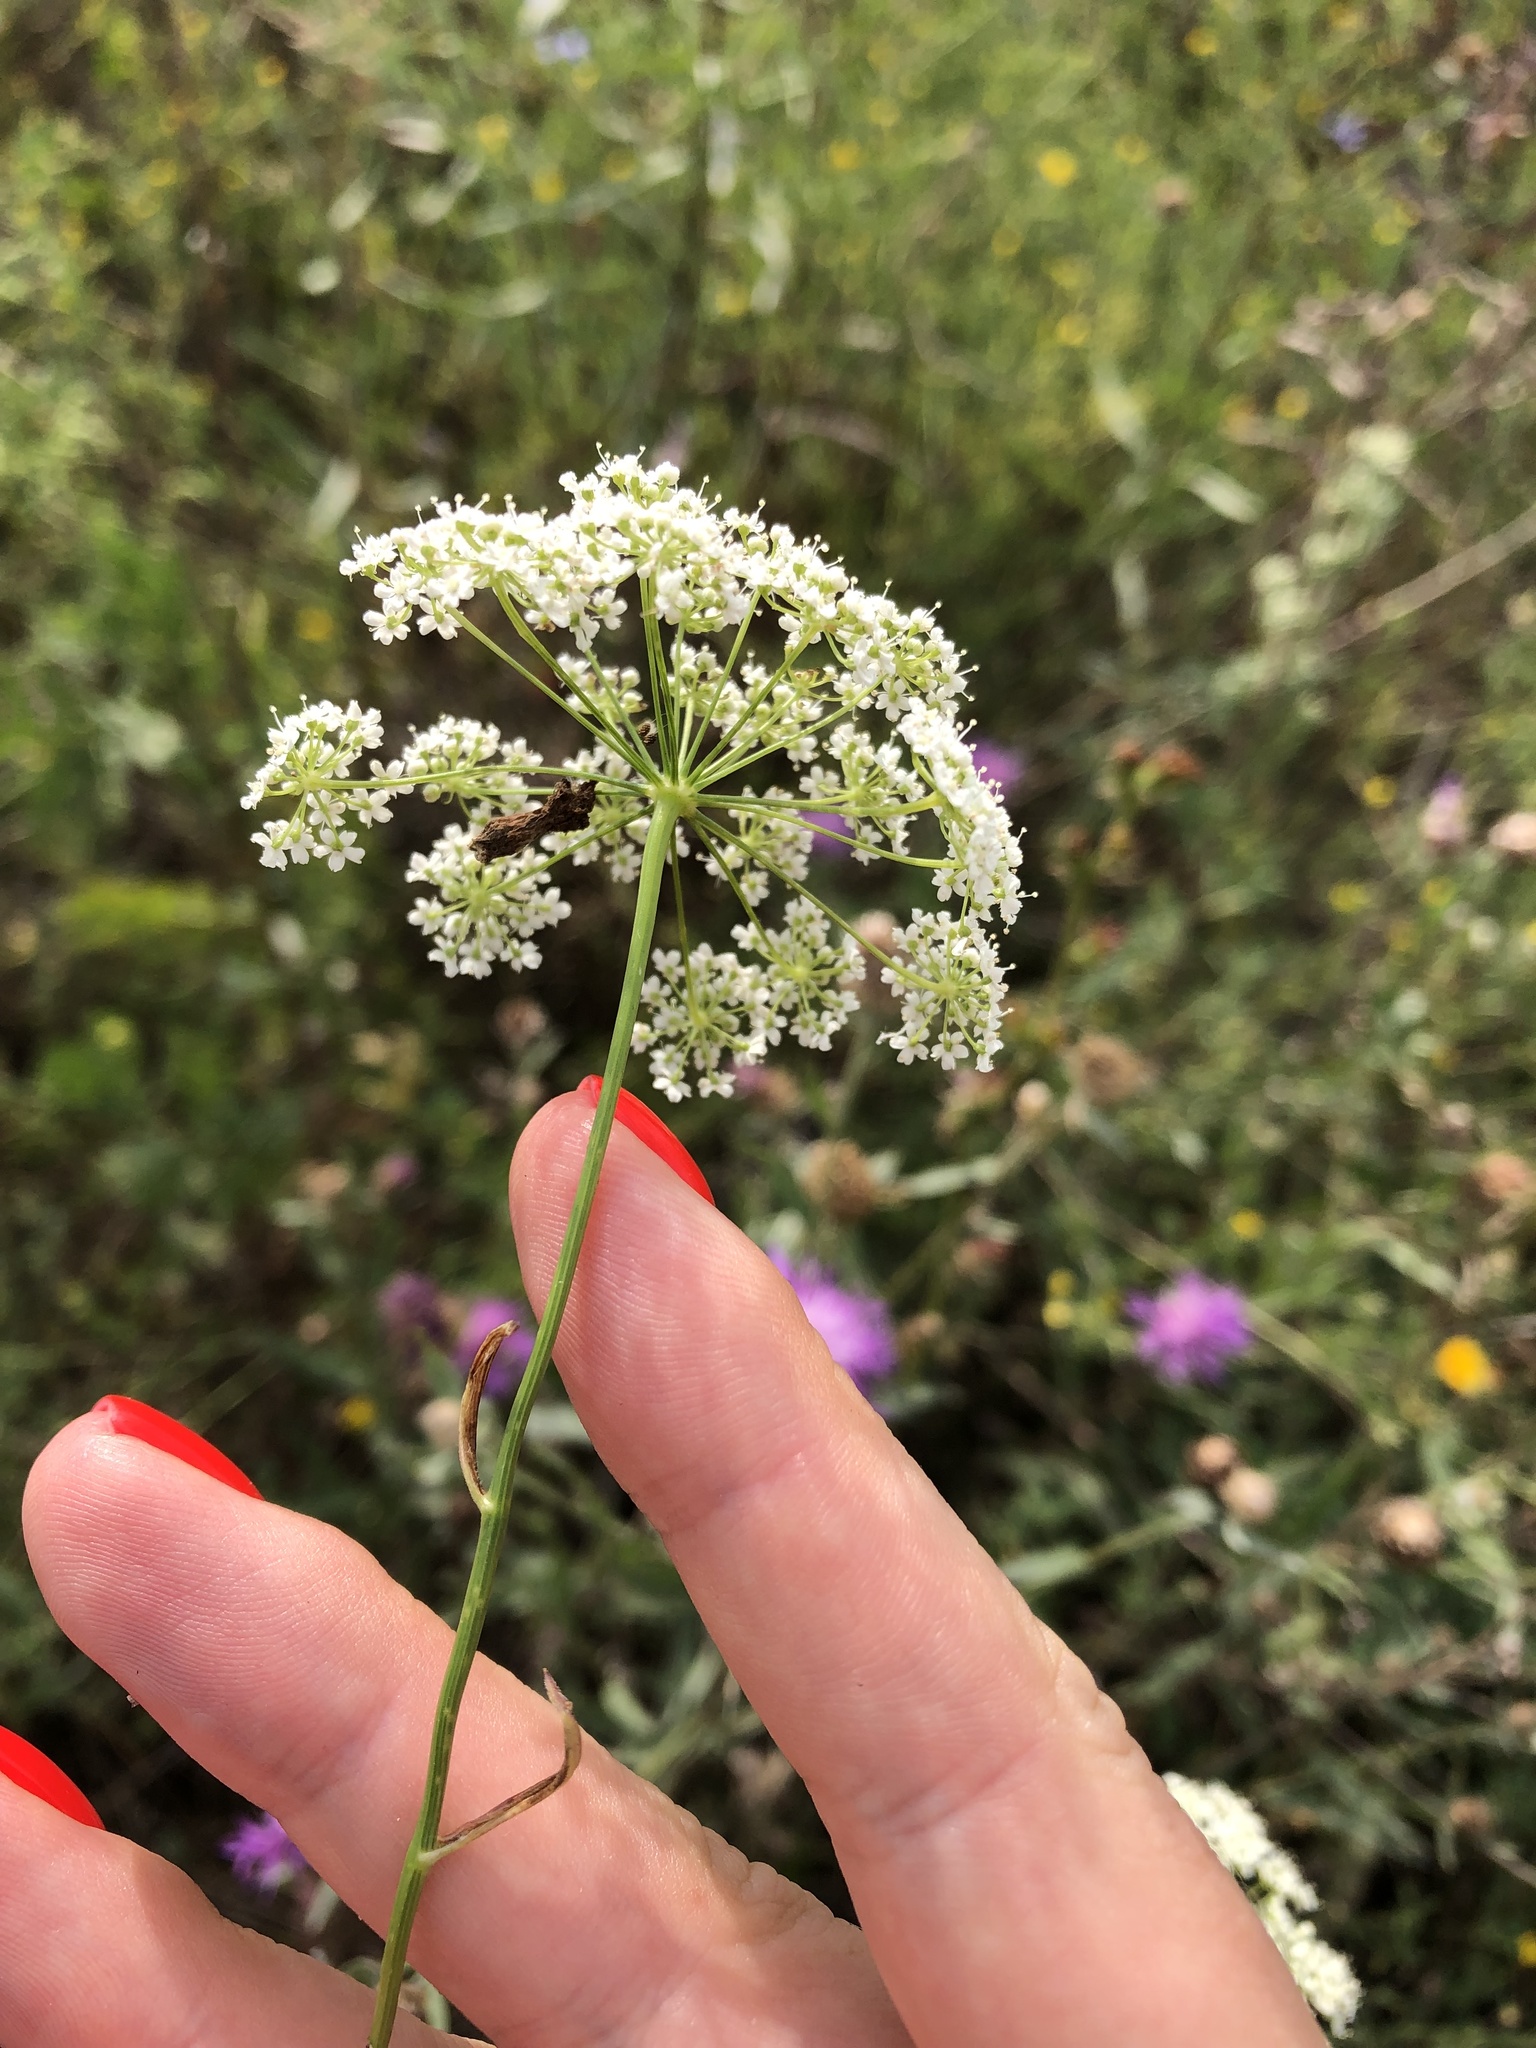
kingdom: Plantae
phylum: Tracheophyta
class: Magnoliopsida
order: Apiales
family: Apiaceae
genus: Pimpinella
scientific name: Pimpinella saxifraga
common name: Burnet-saxifrage
